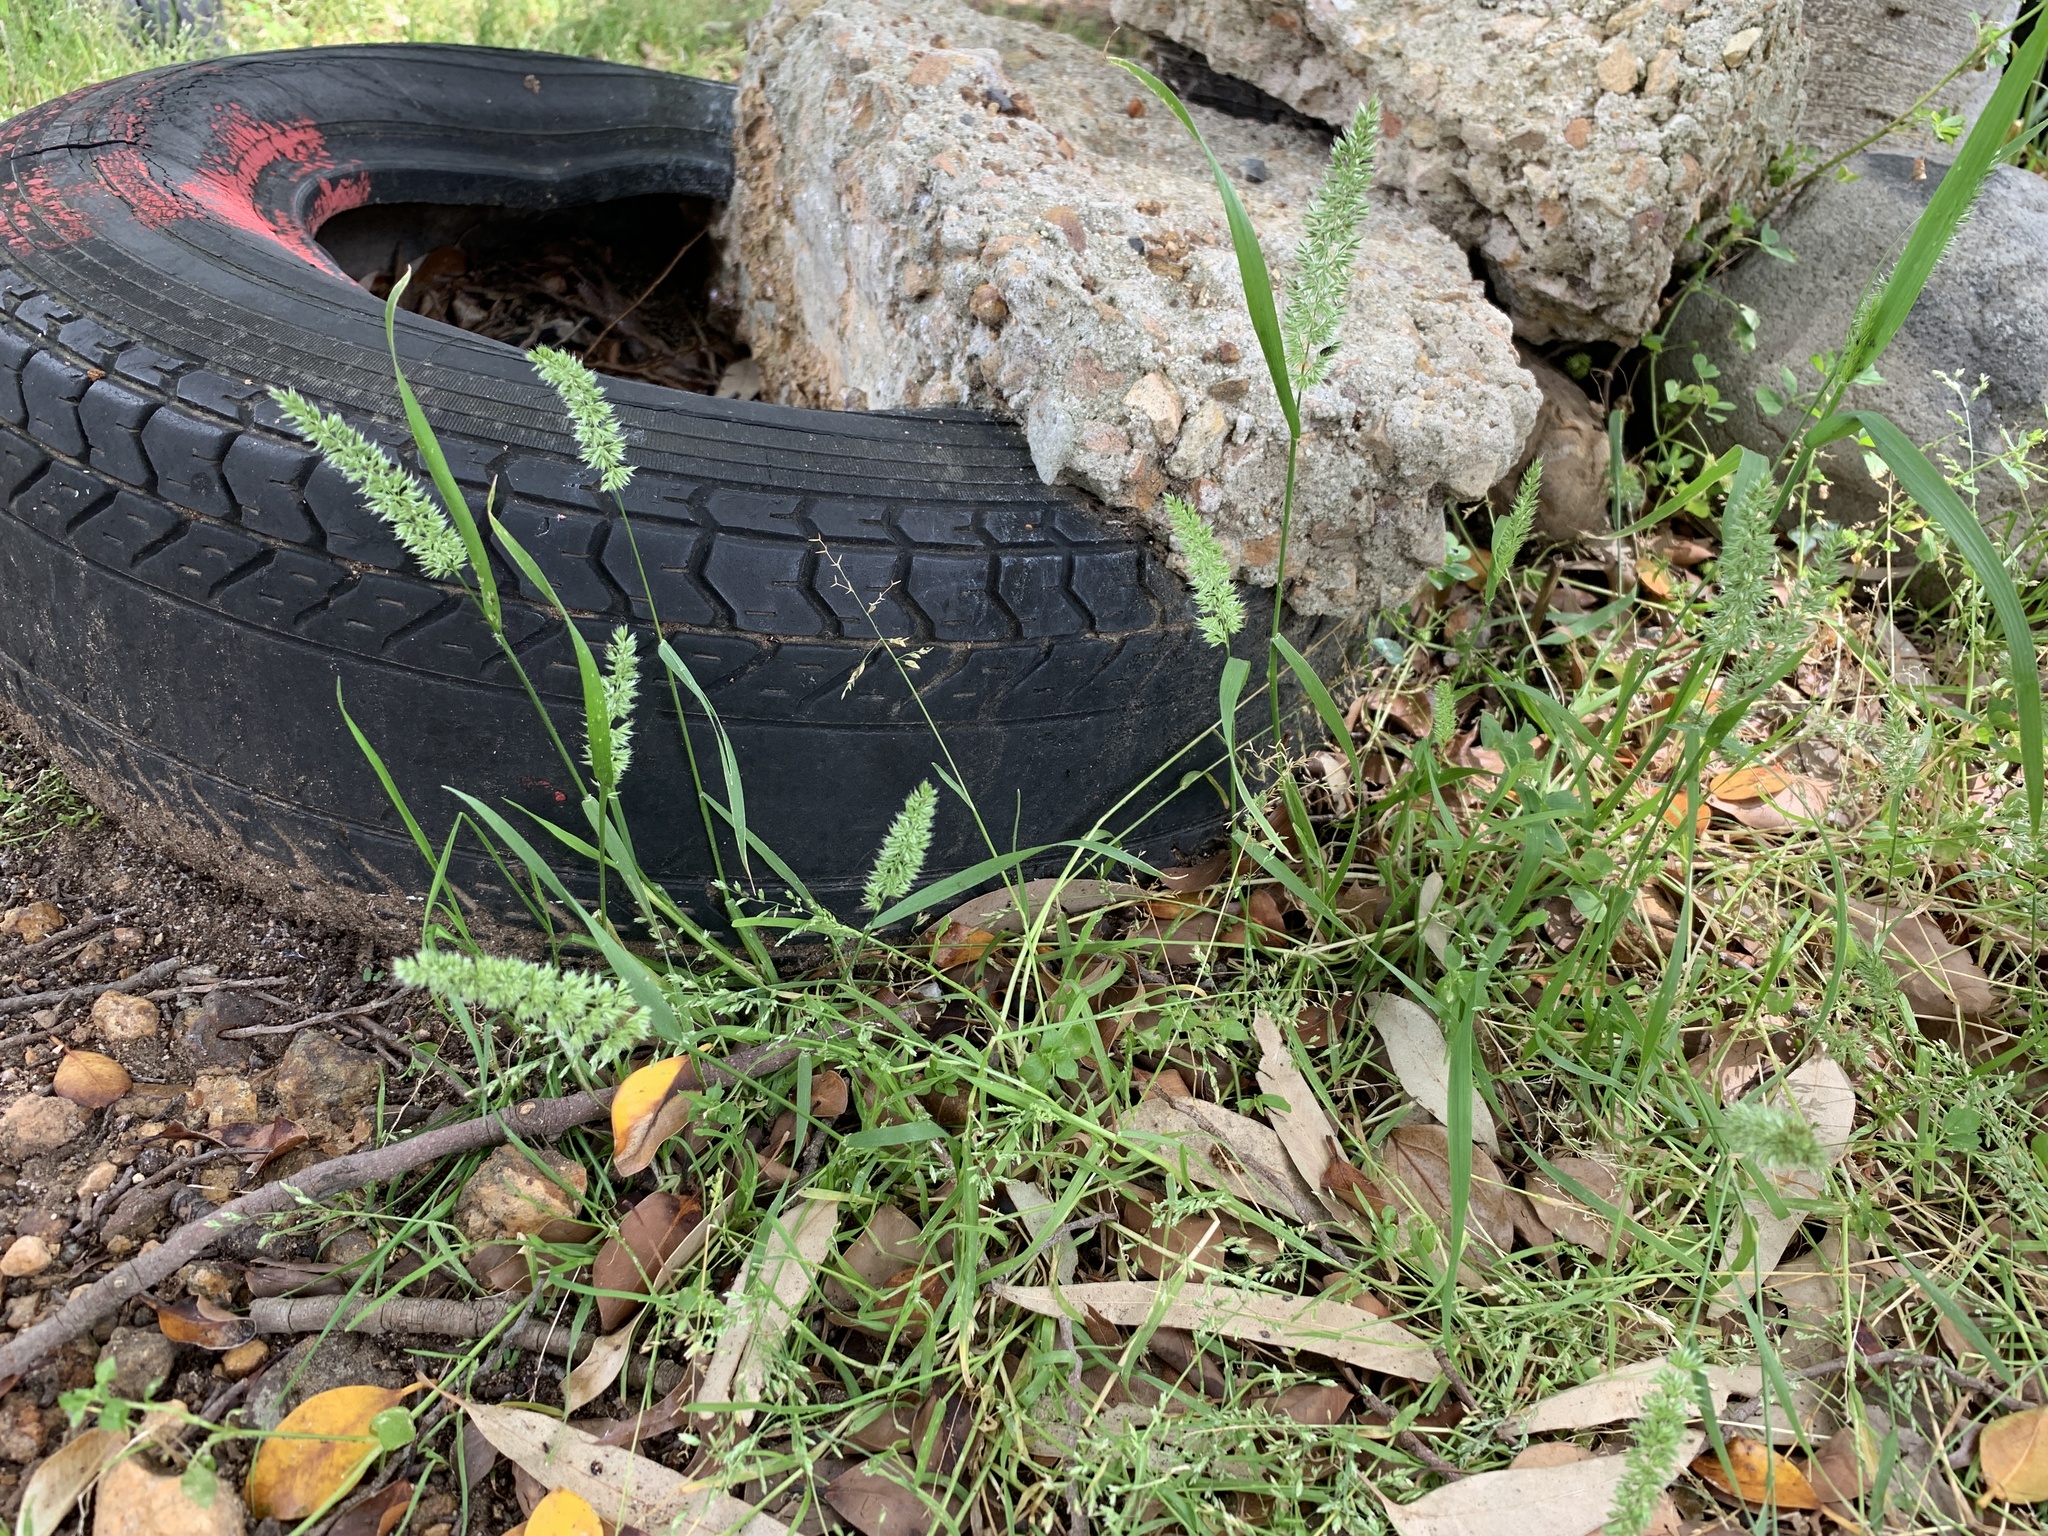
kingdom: Plantae
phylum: Tracheophyta
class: Liliopsida
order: Poales
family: Poaceae
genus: Rostraria
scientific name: Rostraria cristata
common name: Mediterranean hair-grass
